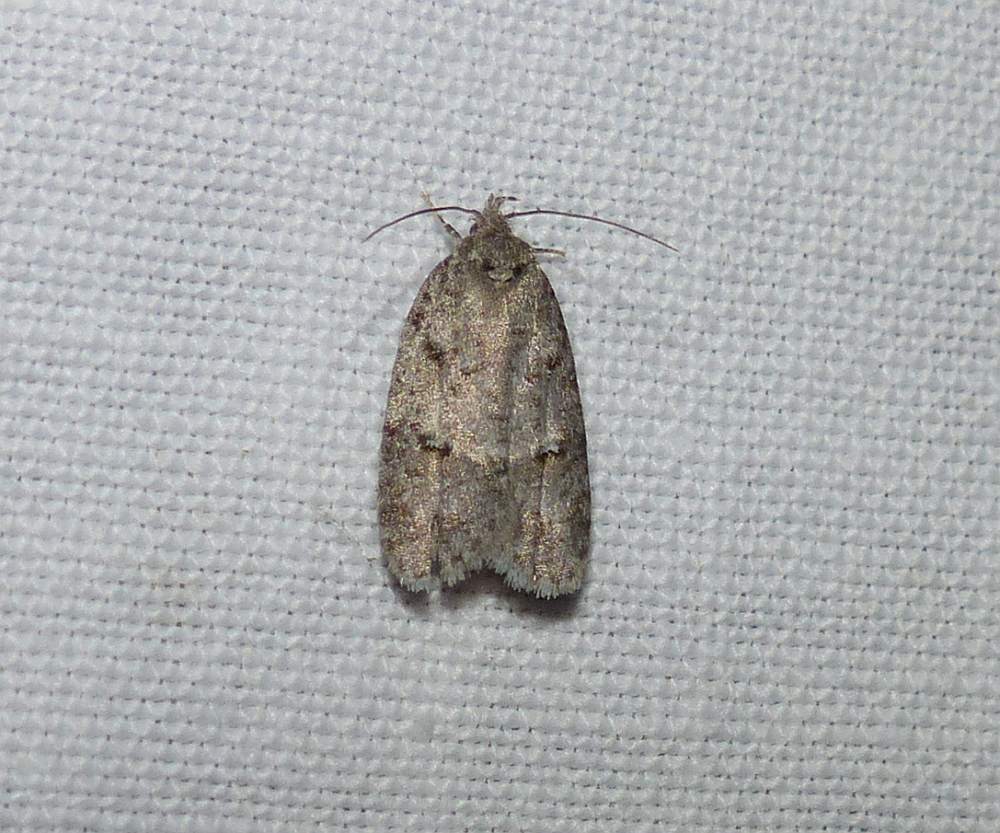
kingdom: Animalia
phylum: Arthropoda
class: Insecta
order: Lepidoptera
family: Depressariidae
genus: Bibarrambla
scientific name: Bibarrambla allenella
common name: Bog bibarrambla moth
